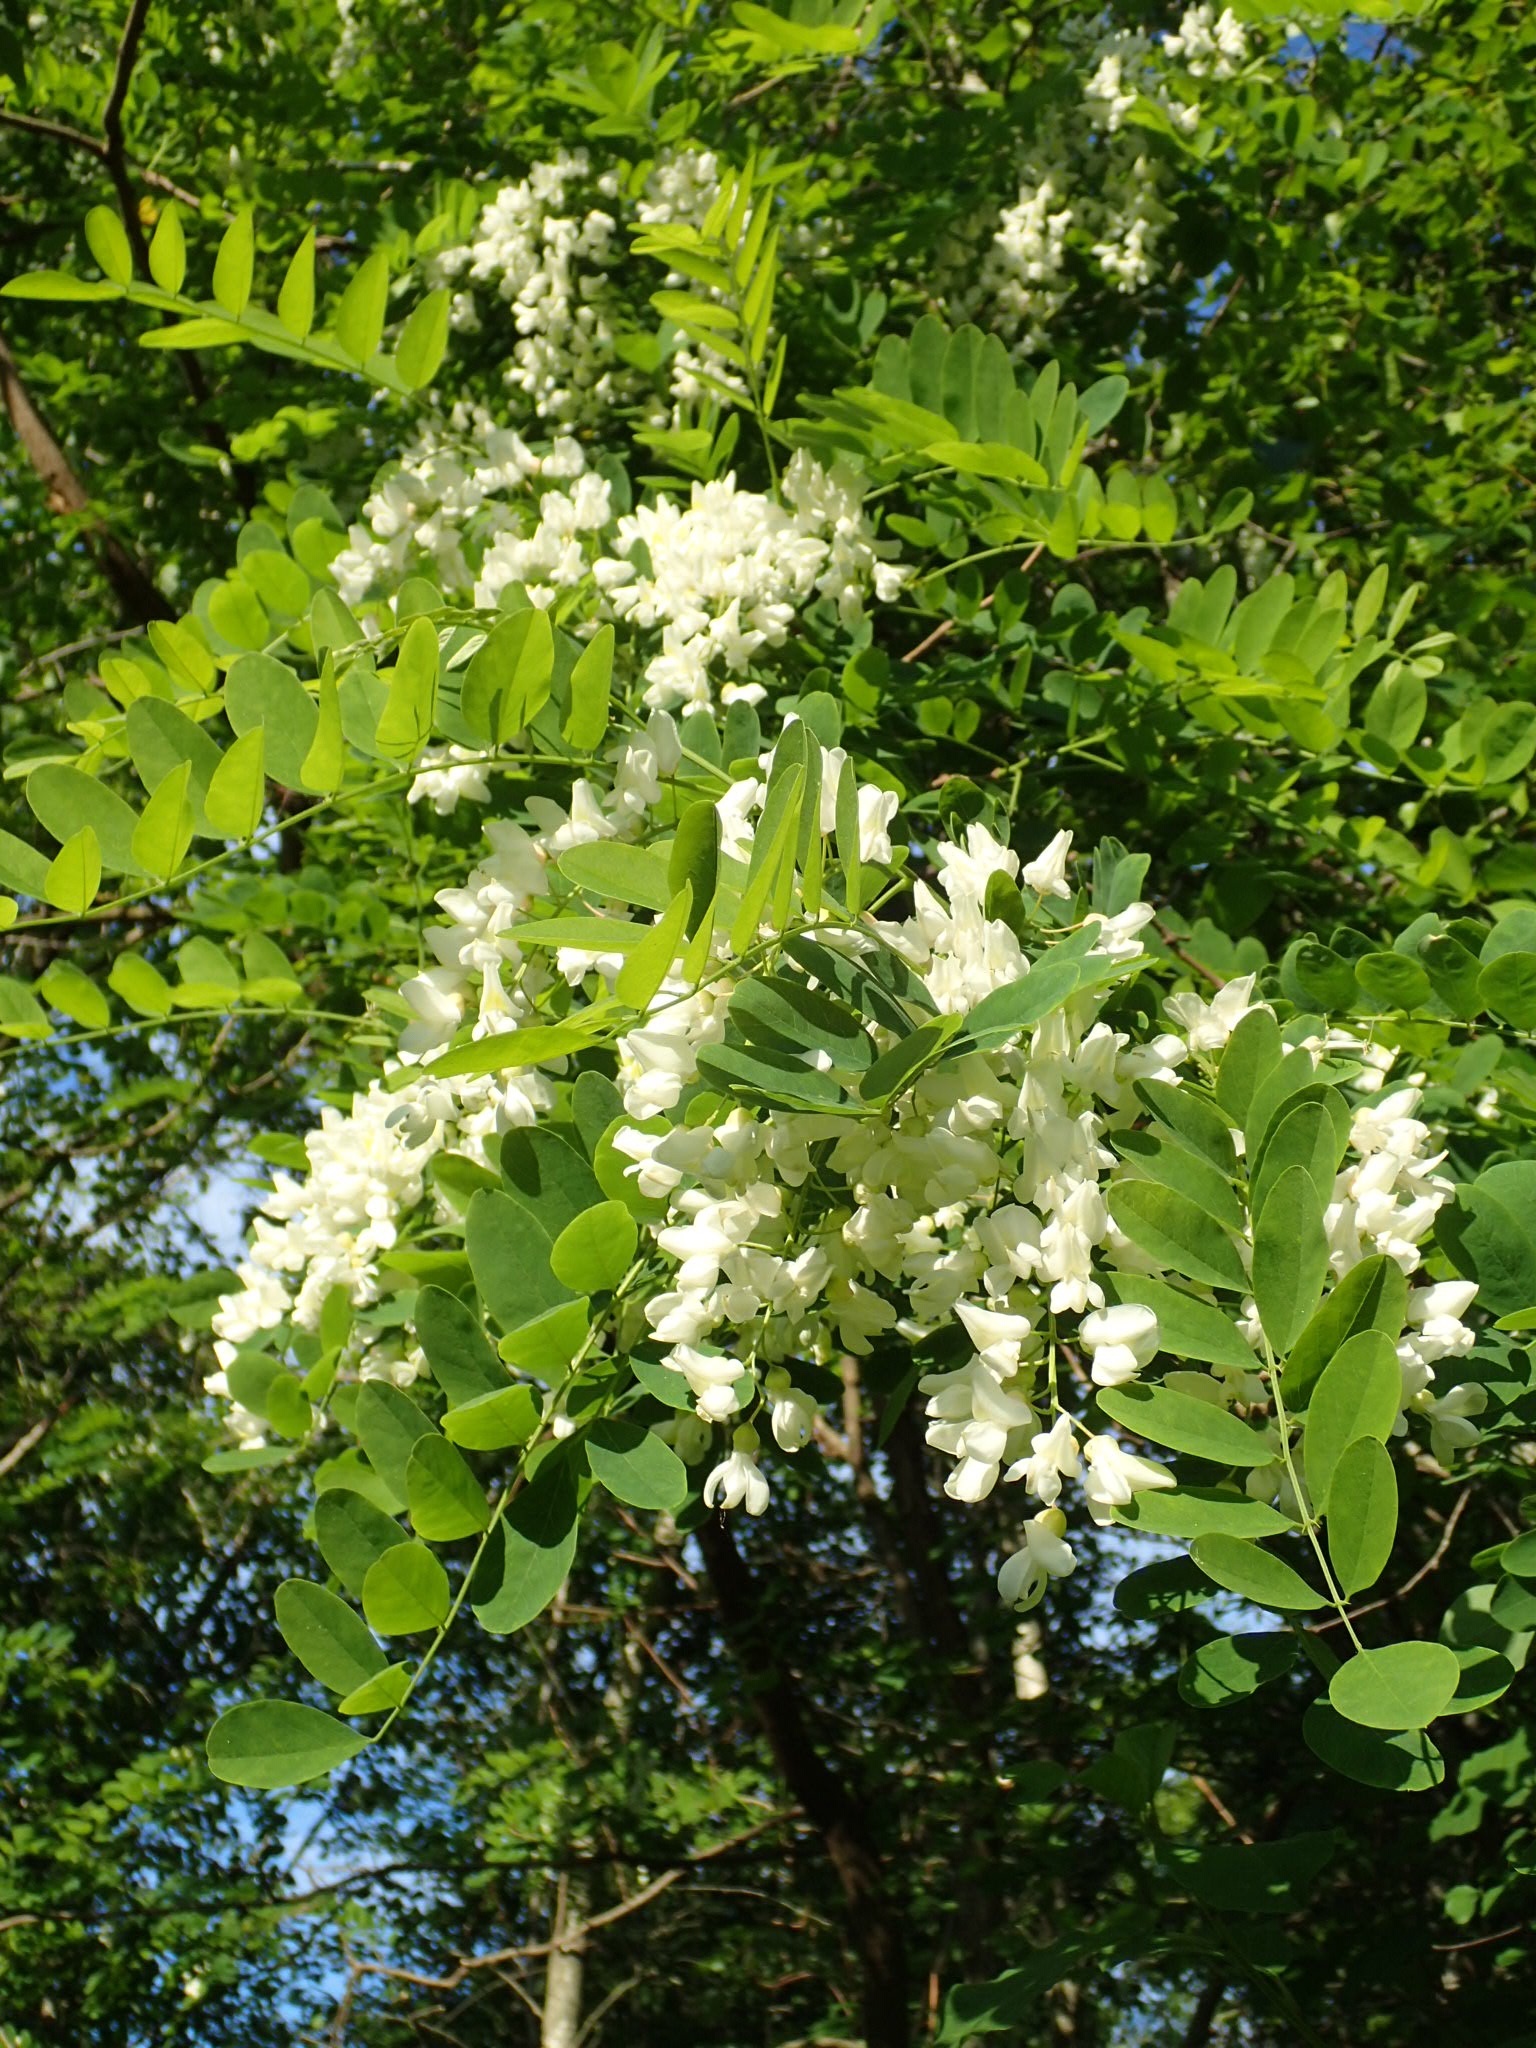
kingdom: Plantae
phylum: Tracheophyta
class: Magnoliopsida
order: Fabales
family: Fabaceae
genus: Robinia
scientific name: Robinia pseudoacacia
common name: Black locust
